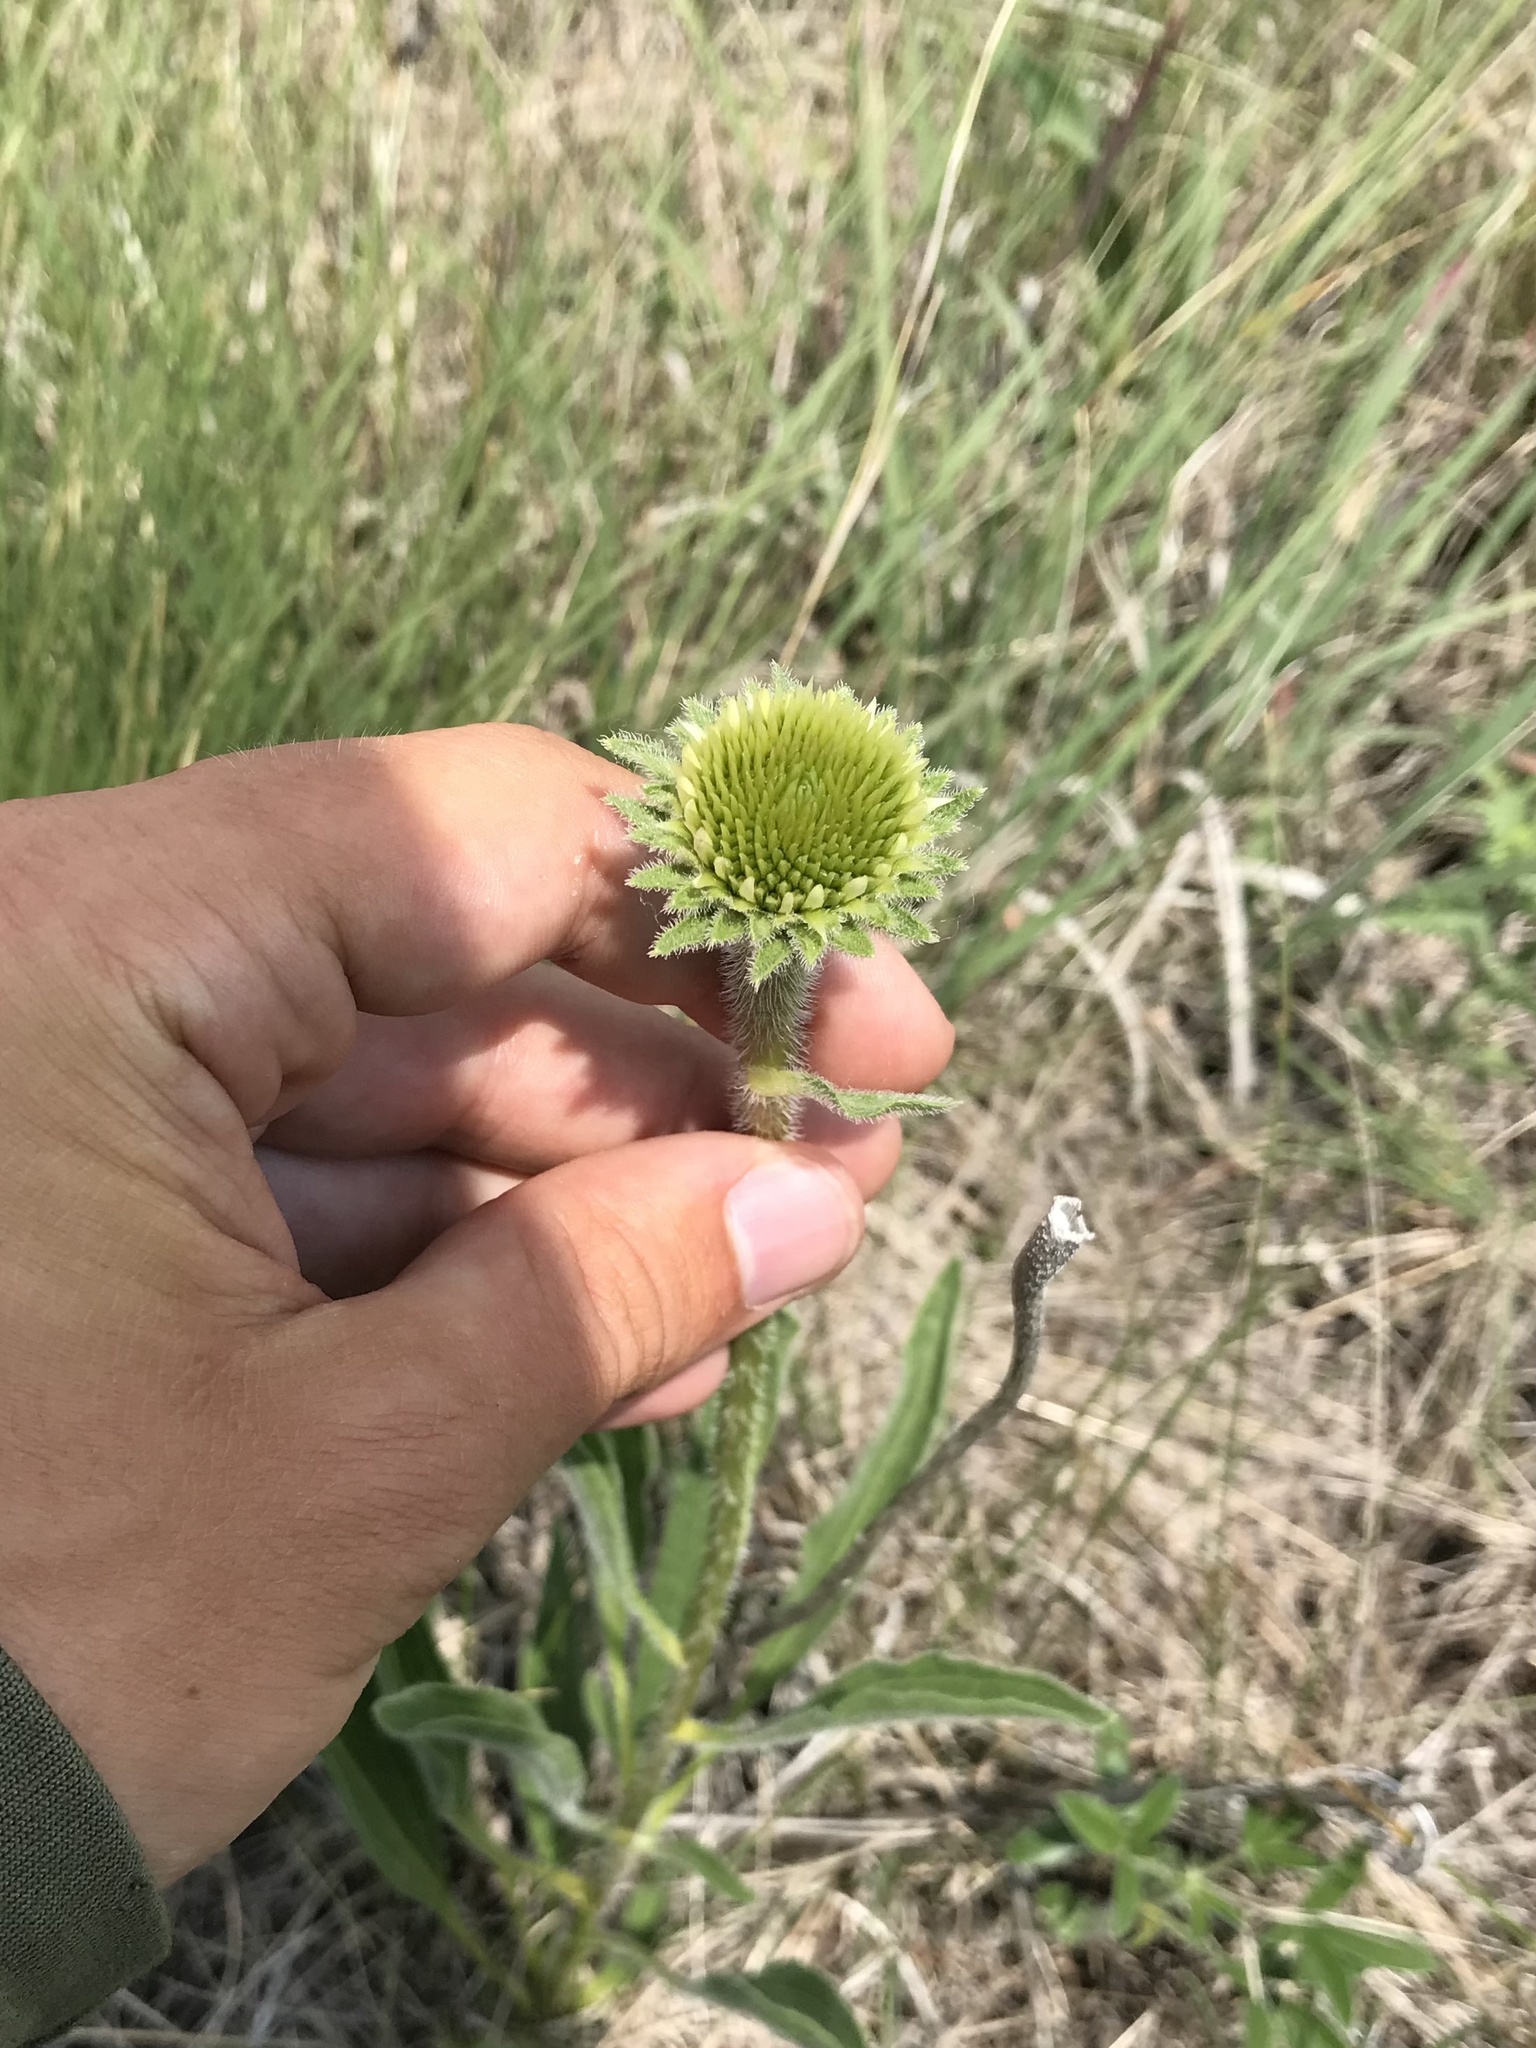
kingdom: Plantae
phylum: Tracheophyta
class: Magnoliopsida
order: Asterales
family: Asteraceae
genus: Echinacea
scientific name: Echinacea angustifolia
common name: Black-sampson echinacea
